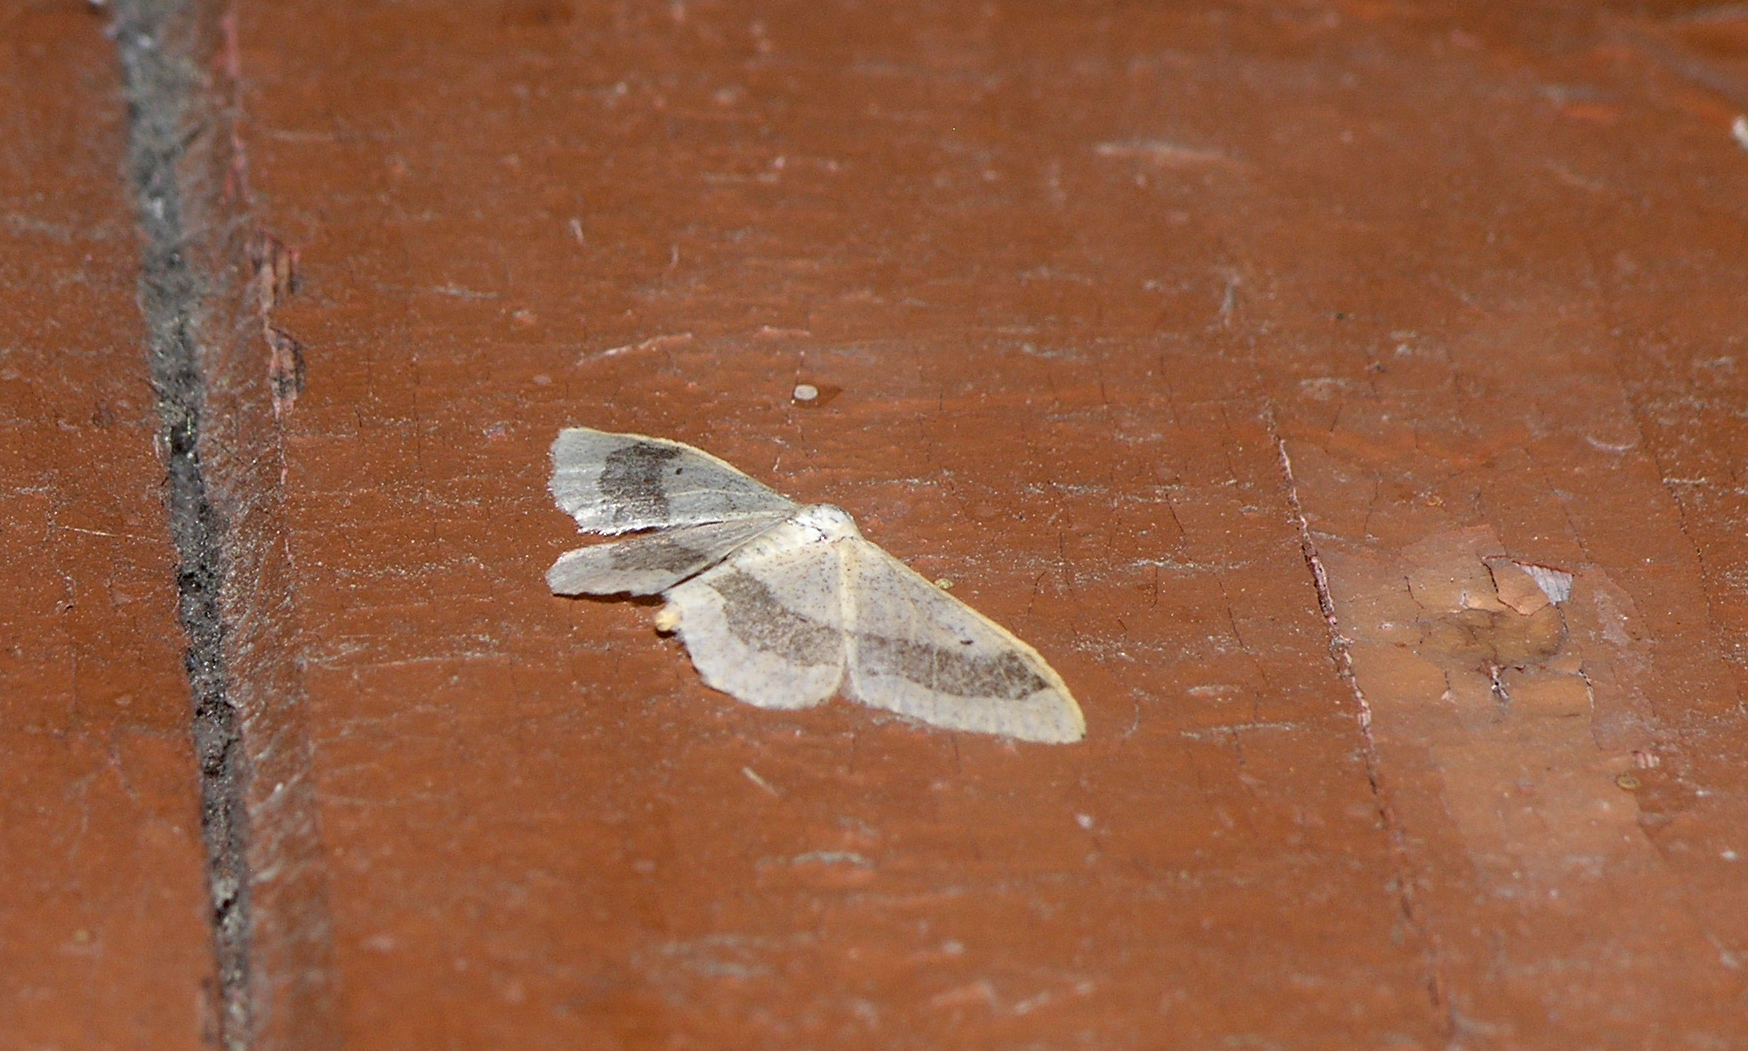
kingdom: Animalia
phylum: Arthropoda
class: Insecta
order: Lepidoptera
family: Geometridae
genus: Idaea
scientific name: Idaea aversata
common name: Riband wave
